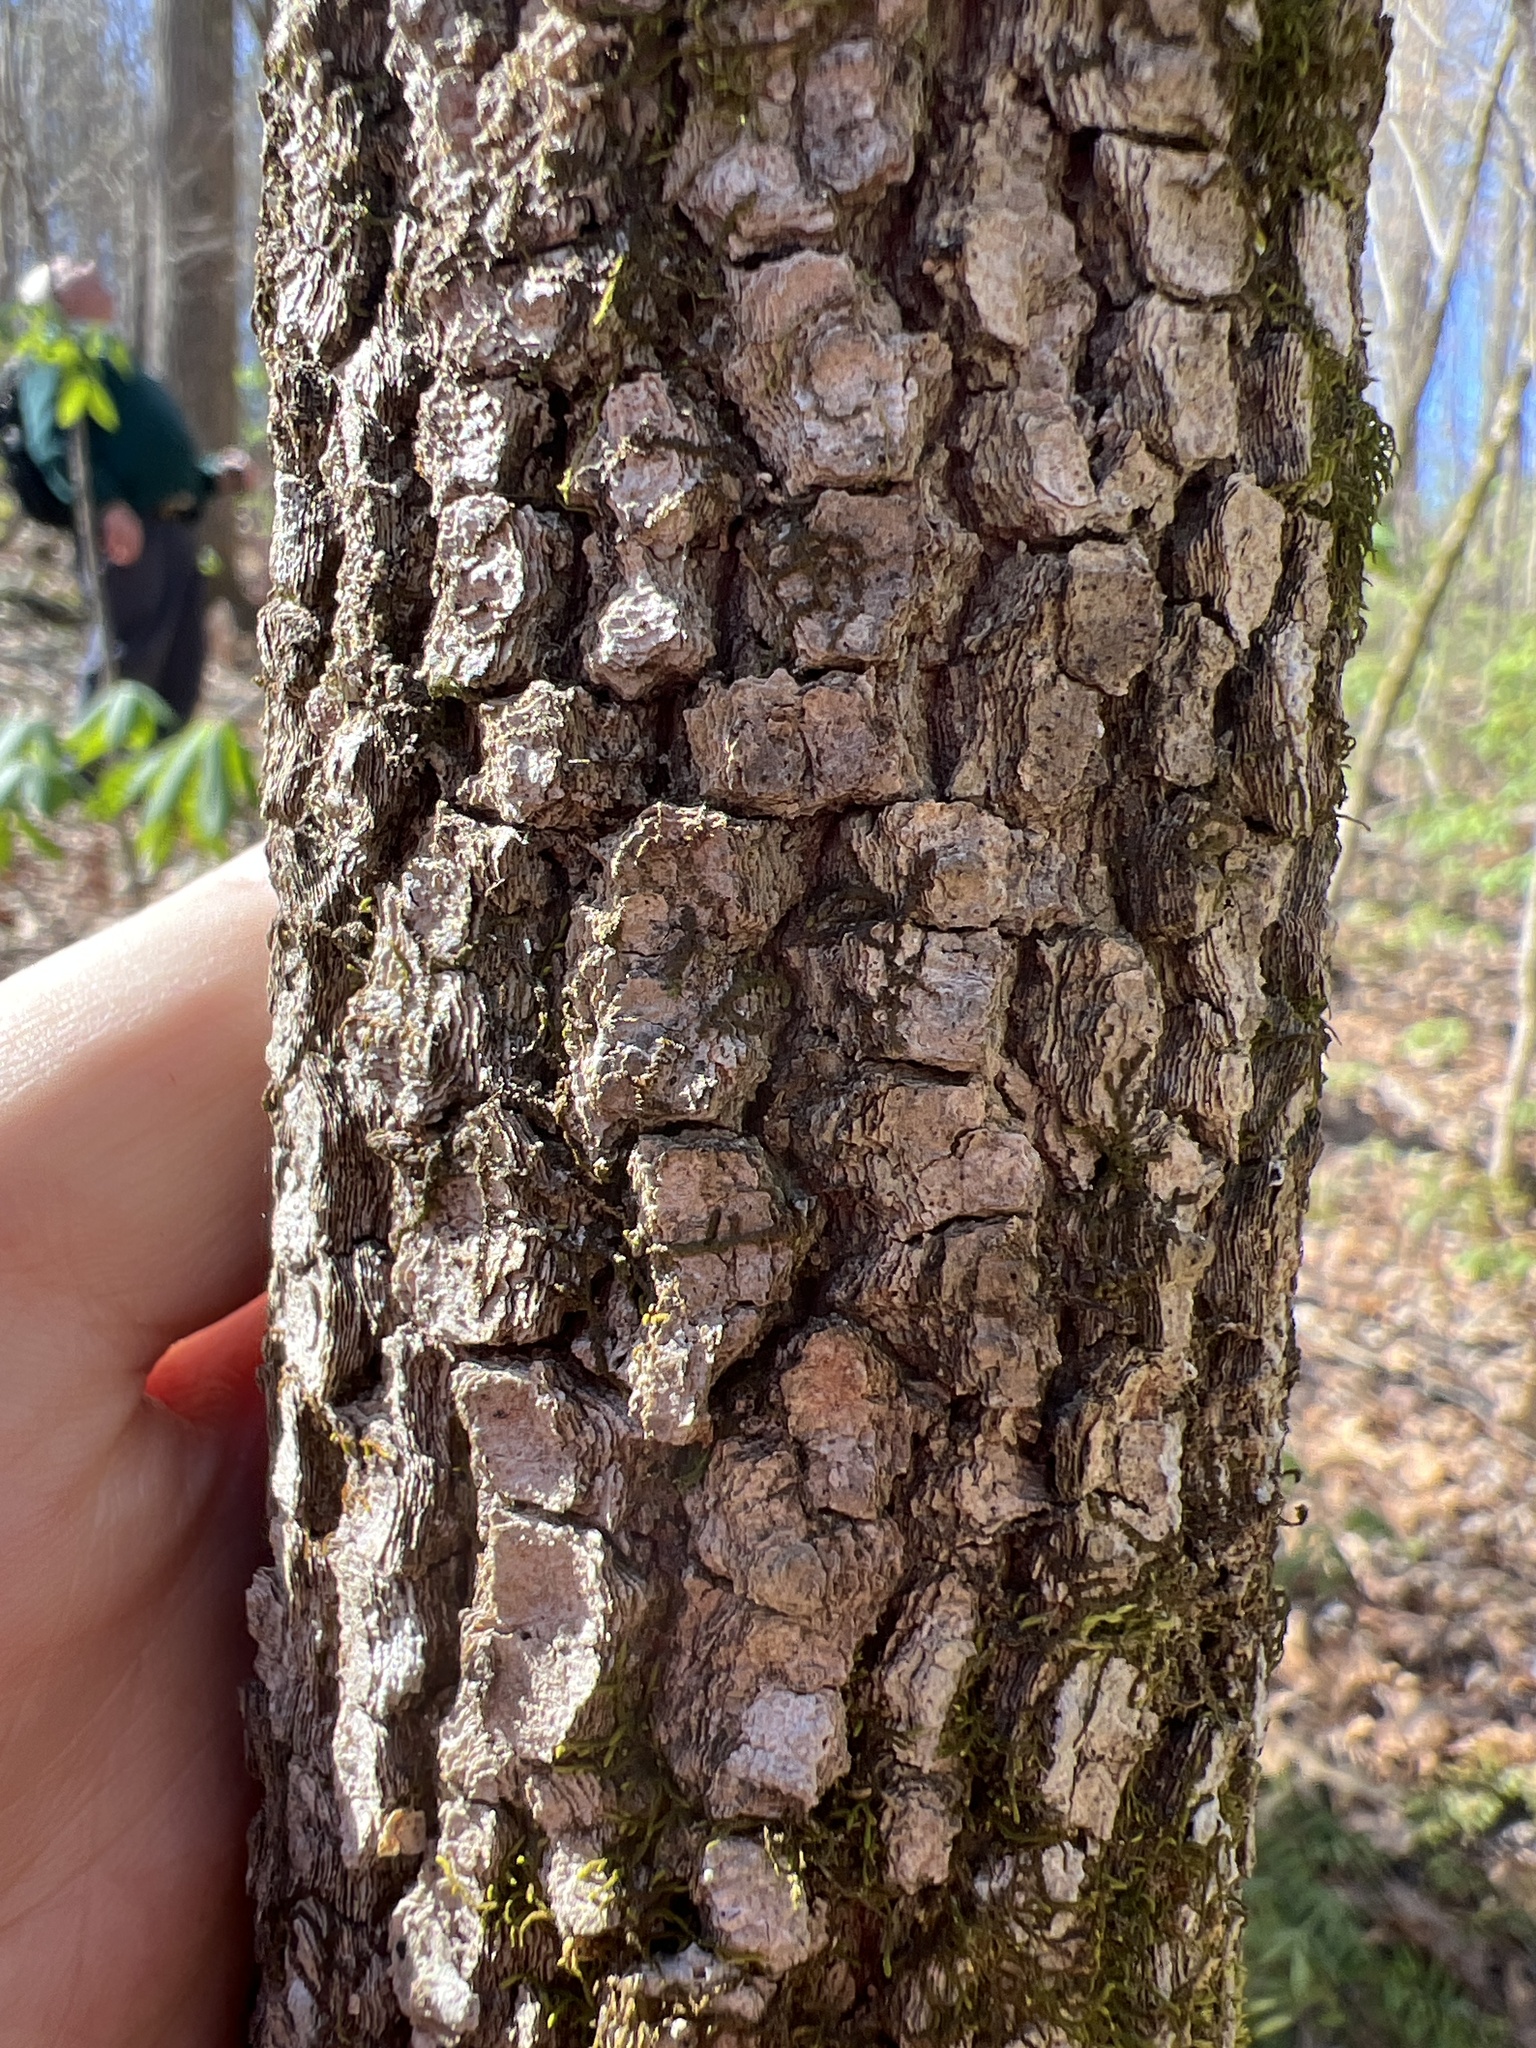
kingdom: Plantae
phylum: Tracheophyta
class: Magnoliopsida
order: Cornales
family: Cornaceae
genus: Cornus
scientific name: Cornus florida
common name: Flowering dogwood
